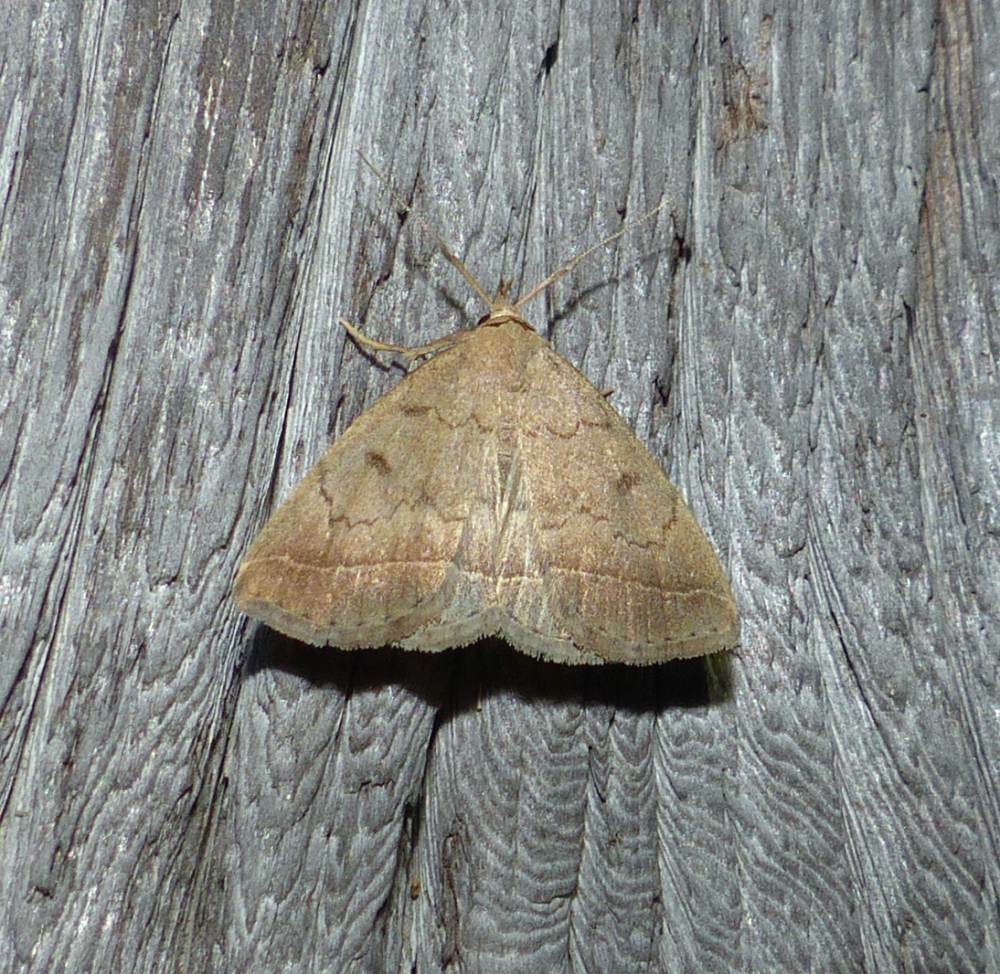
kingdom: Animalia
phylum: Arthropoda
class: Insecta
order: Lepidoptera
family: Erebidae
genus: Zanclognatha
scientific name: Zanclognatha jacchusalis
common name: Yellowish zanclognatha
